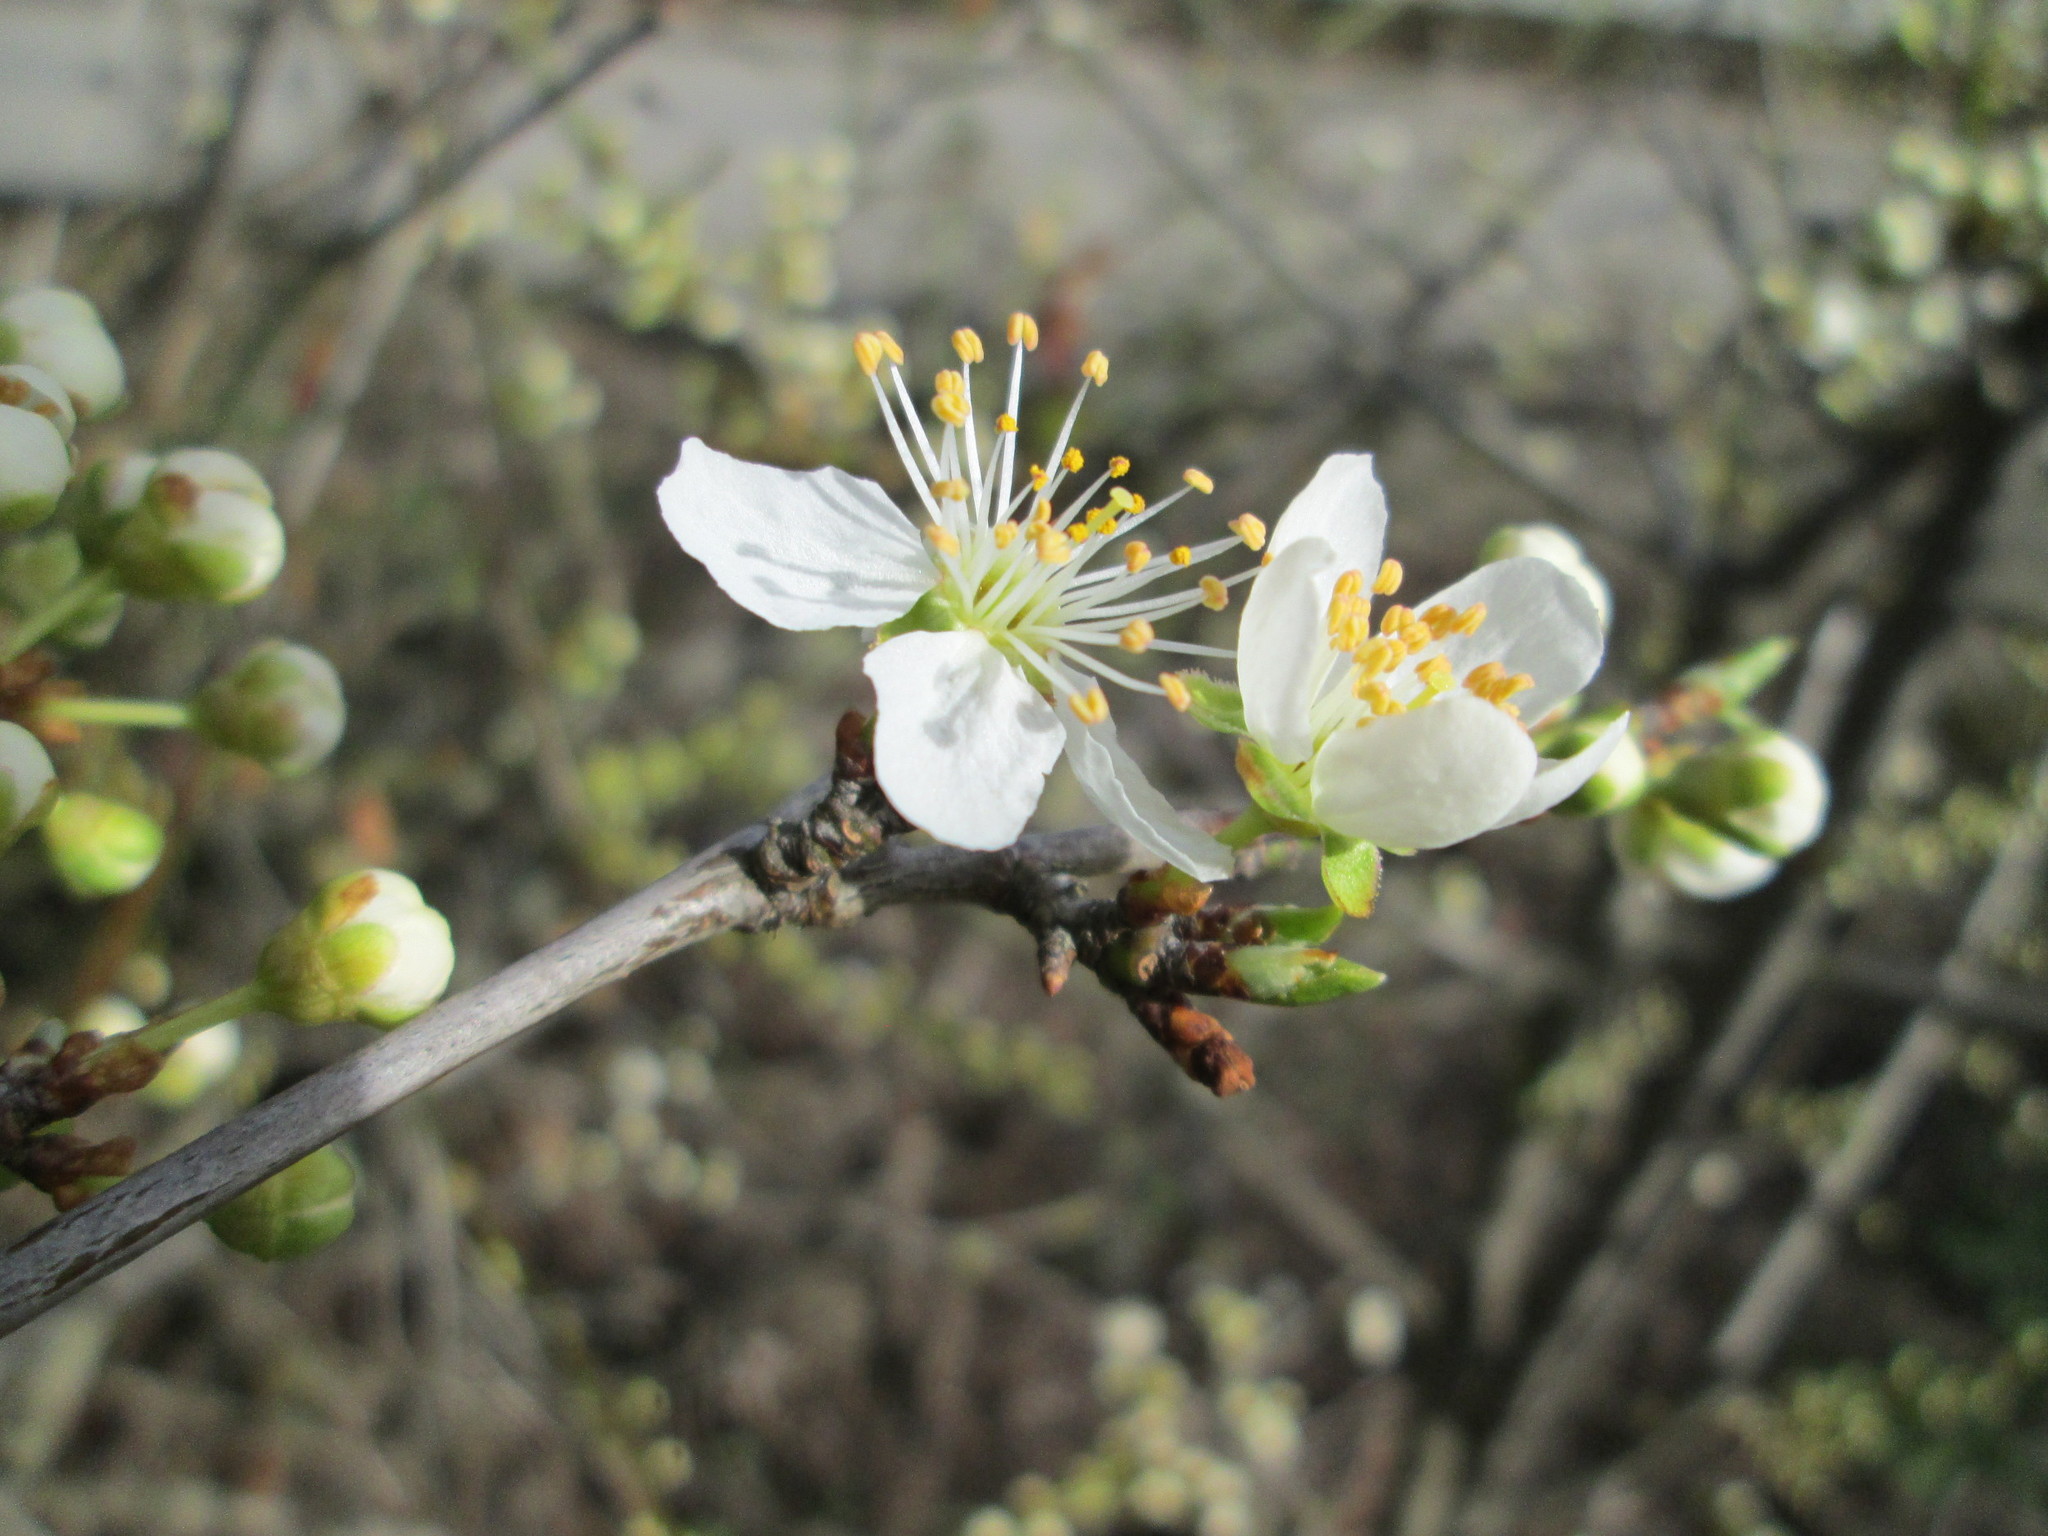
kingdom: Plantae
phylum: Tracheophyta
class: Magnoliopsida
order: Rosales
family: Rosaceae
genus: Prunus
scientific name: Prunus cerasifera
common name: Cherry plum
